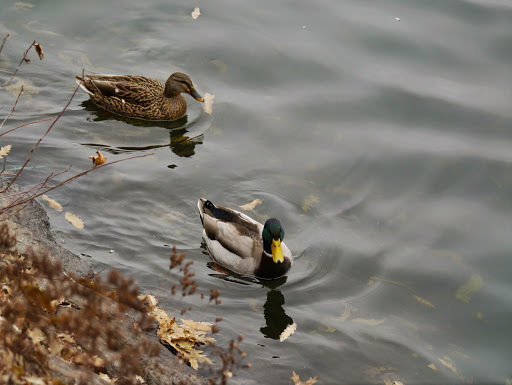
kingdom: Animalia
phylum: Chordata
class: Aves
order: Anseriformes
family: Anatidae
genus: Anas
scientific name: Anas platyrhynchos
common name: Mallard
